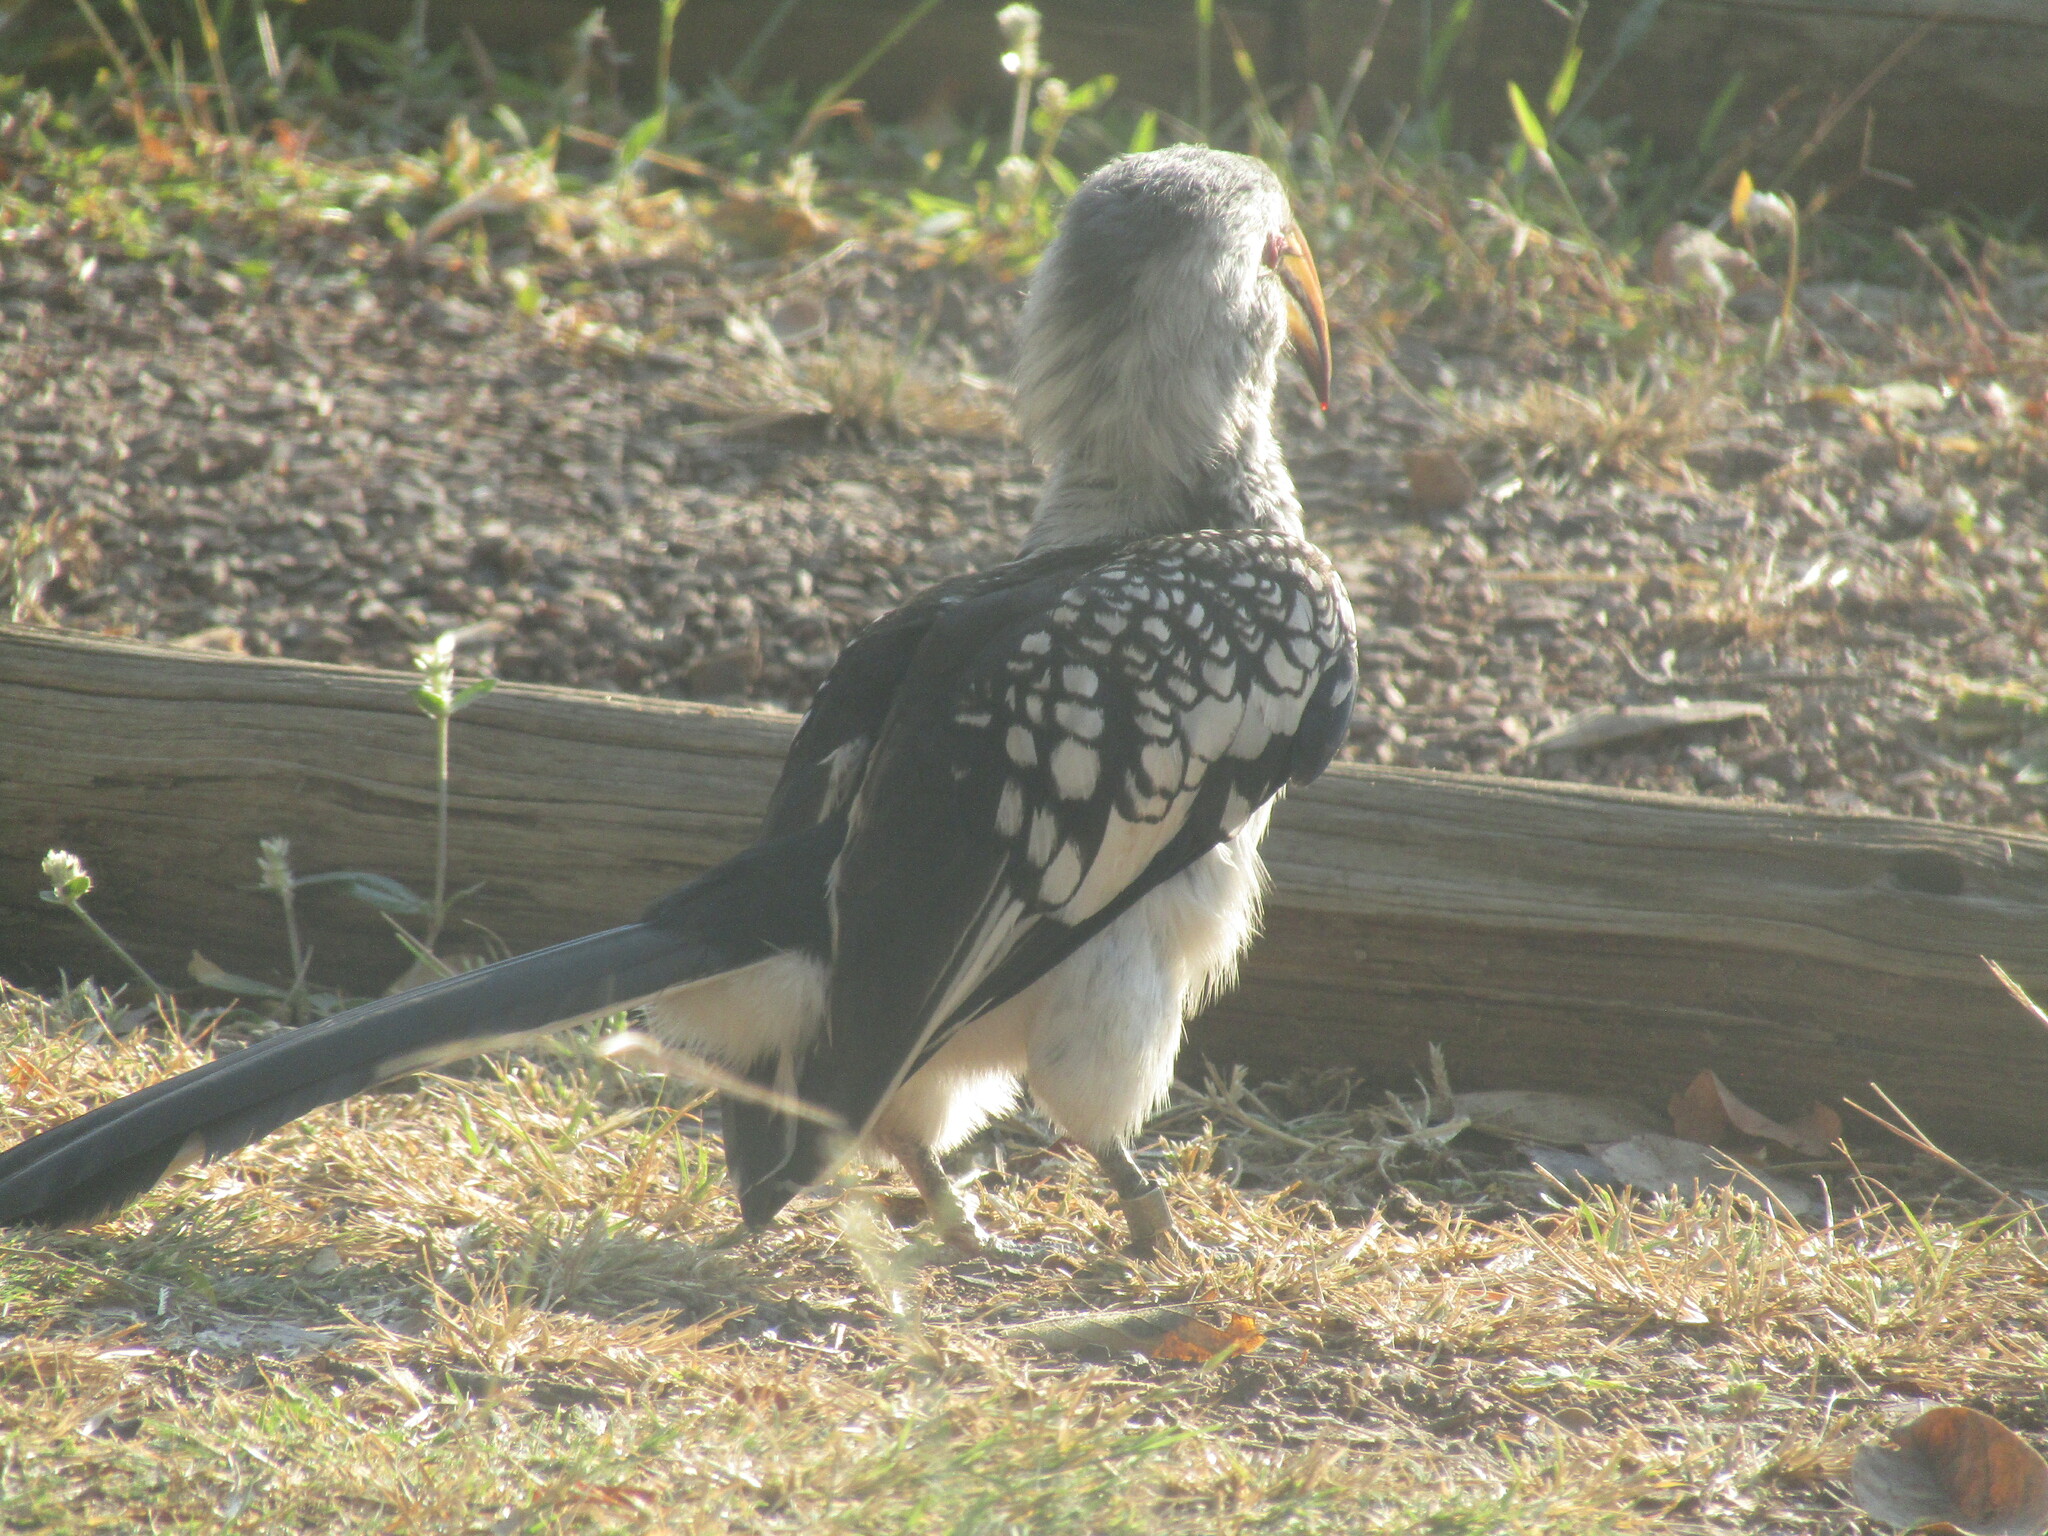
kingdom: Animalia
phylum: Chordata
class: Aves
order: Bucerotiformes
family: Bucerotidae
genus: Tockus
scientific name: Tockus leucomelas
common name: Southern yellow-billed hornbill
